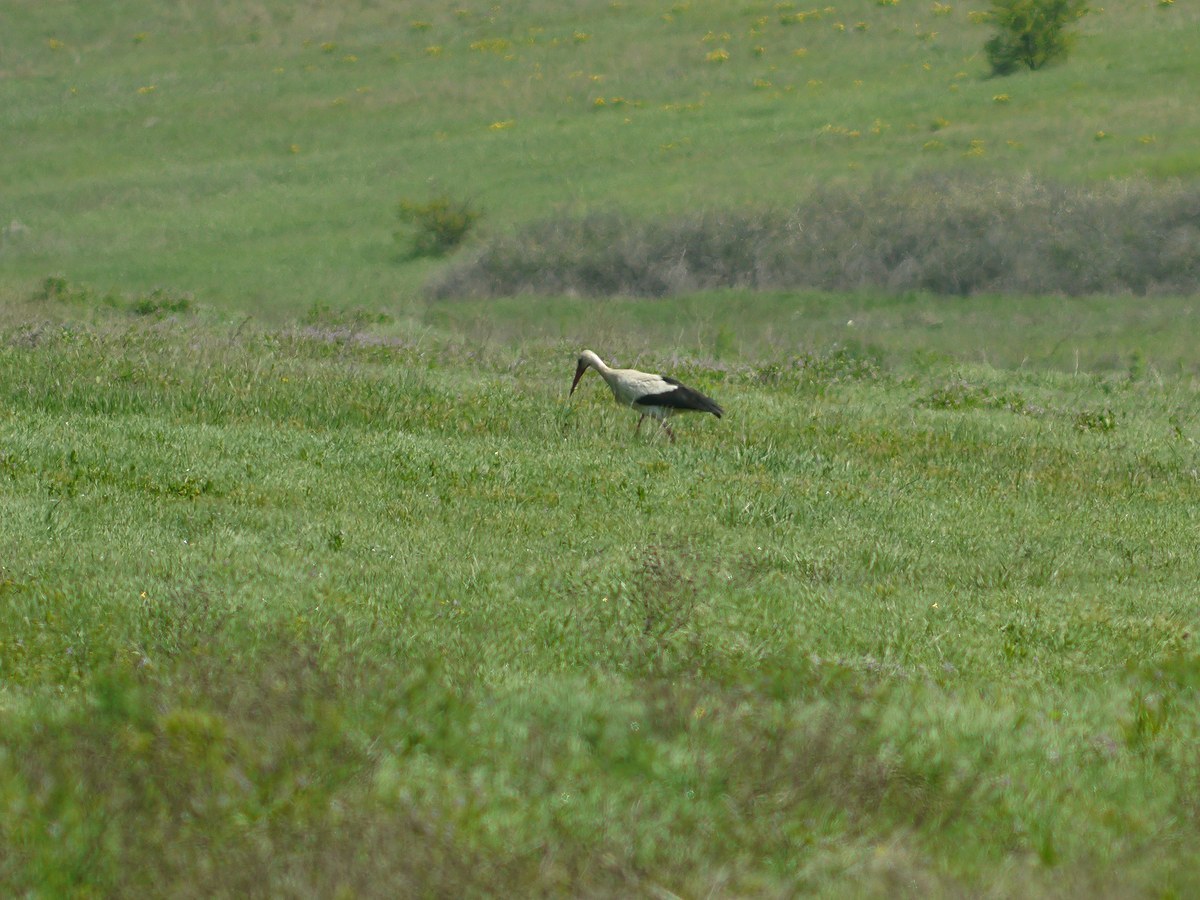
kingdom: Animalia
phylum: Chordata
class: Aves
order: Ciconiiformes
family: Ciconiidae
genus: Ciconia
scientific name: Ciconia ciconia
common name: White stork
